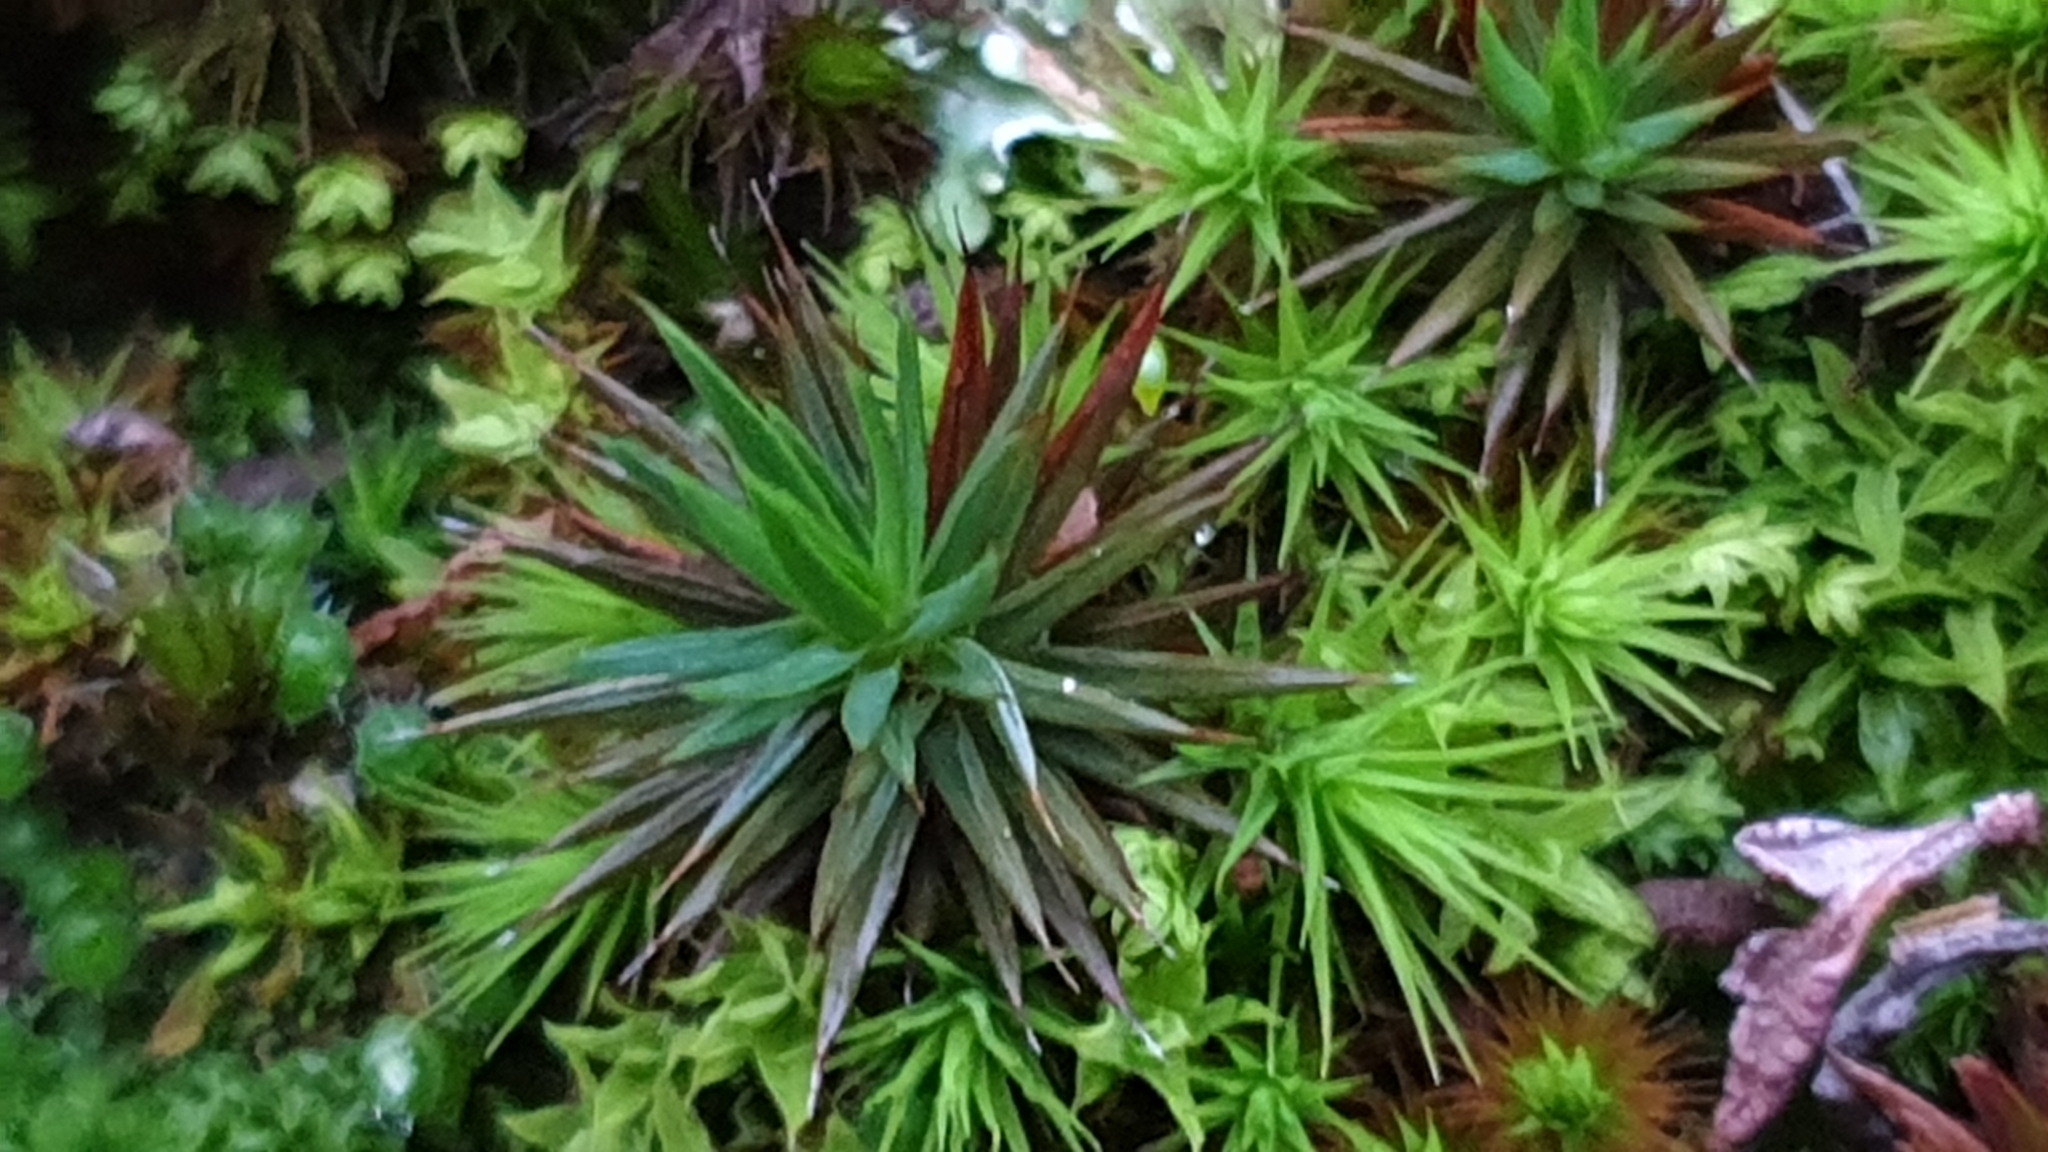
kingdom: Plantae
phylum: Bryophyta
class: Polytrichopsida
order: Polytrichales
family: Polytrichaceae
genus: Polytrichum
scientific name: Polytrichum juniperinum
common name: Juniper haircap moss
